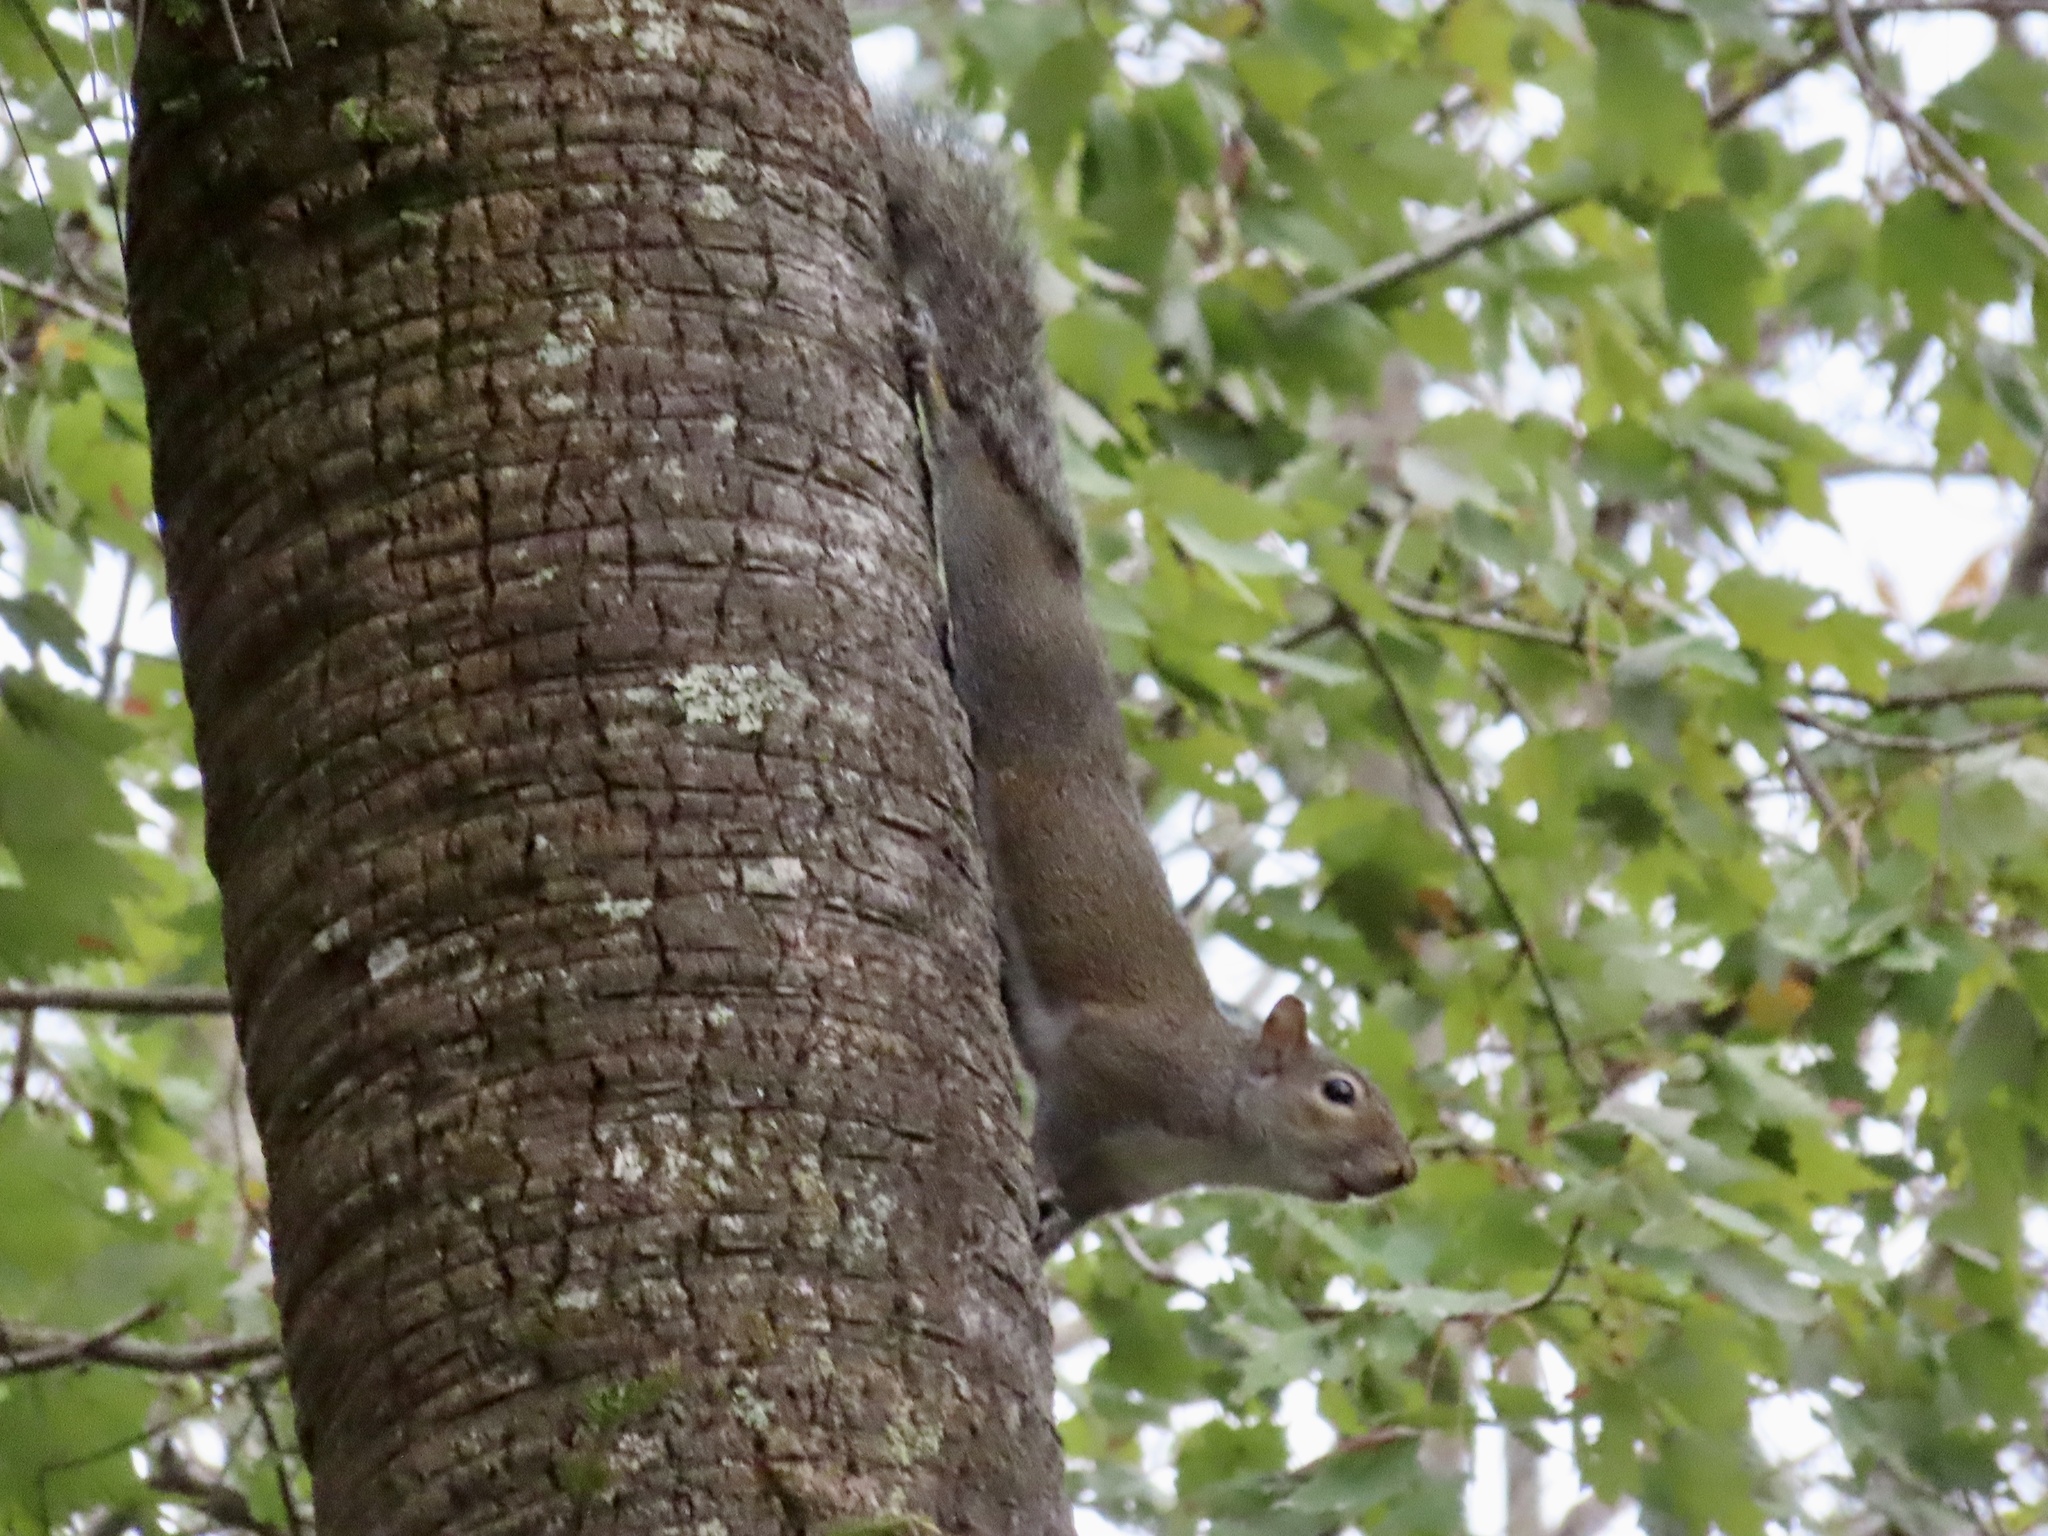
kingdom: Animalia
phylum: Chordata
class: Mammalia
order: Rodentia
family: Sciuridae
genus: Sciurus
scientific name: Sciurus carolinensis
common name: Eastern gray squirrel
